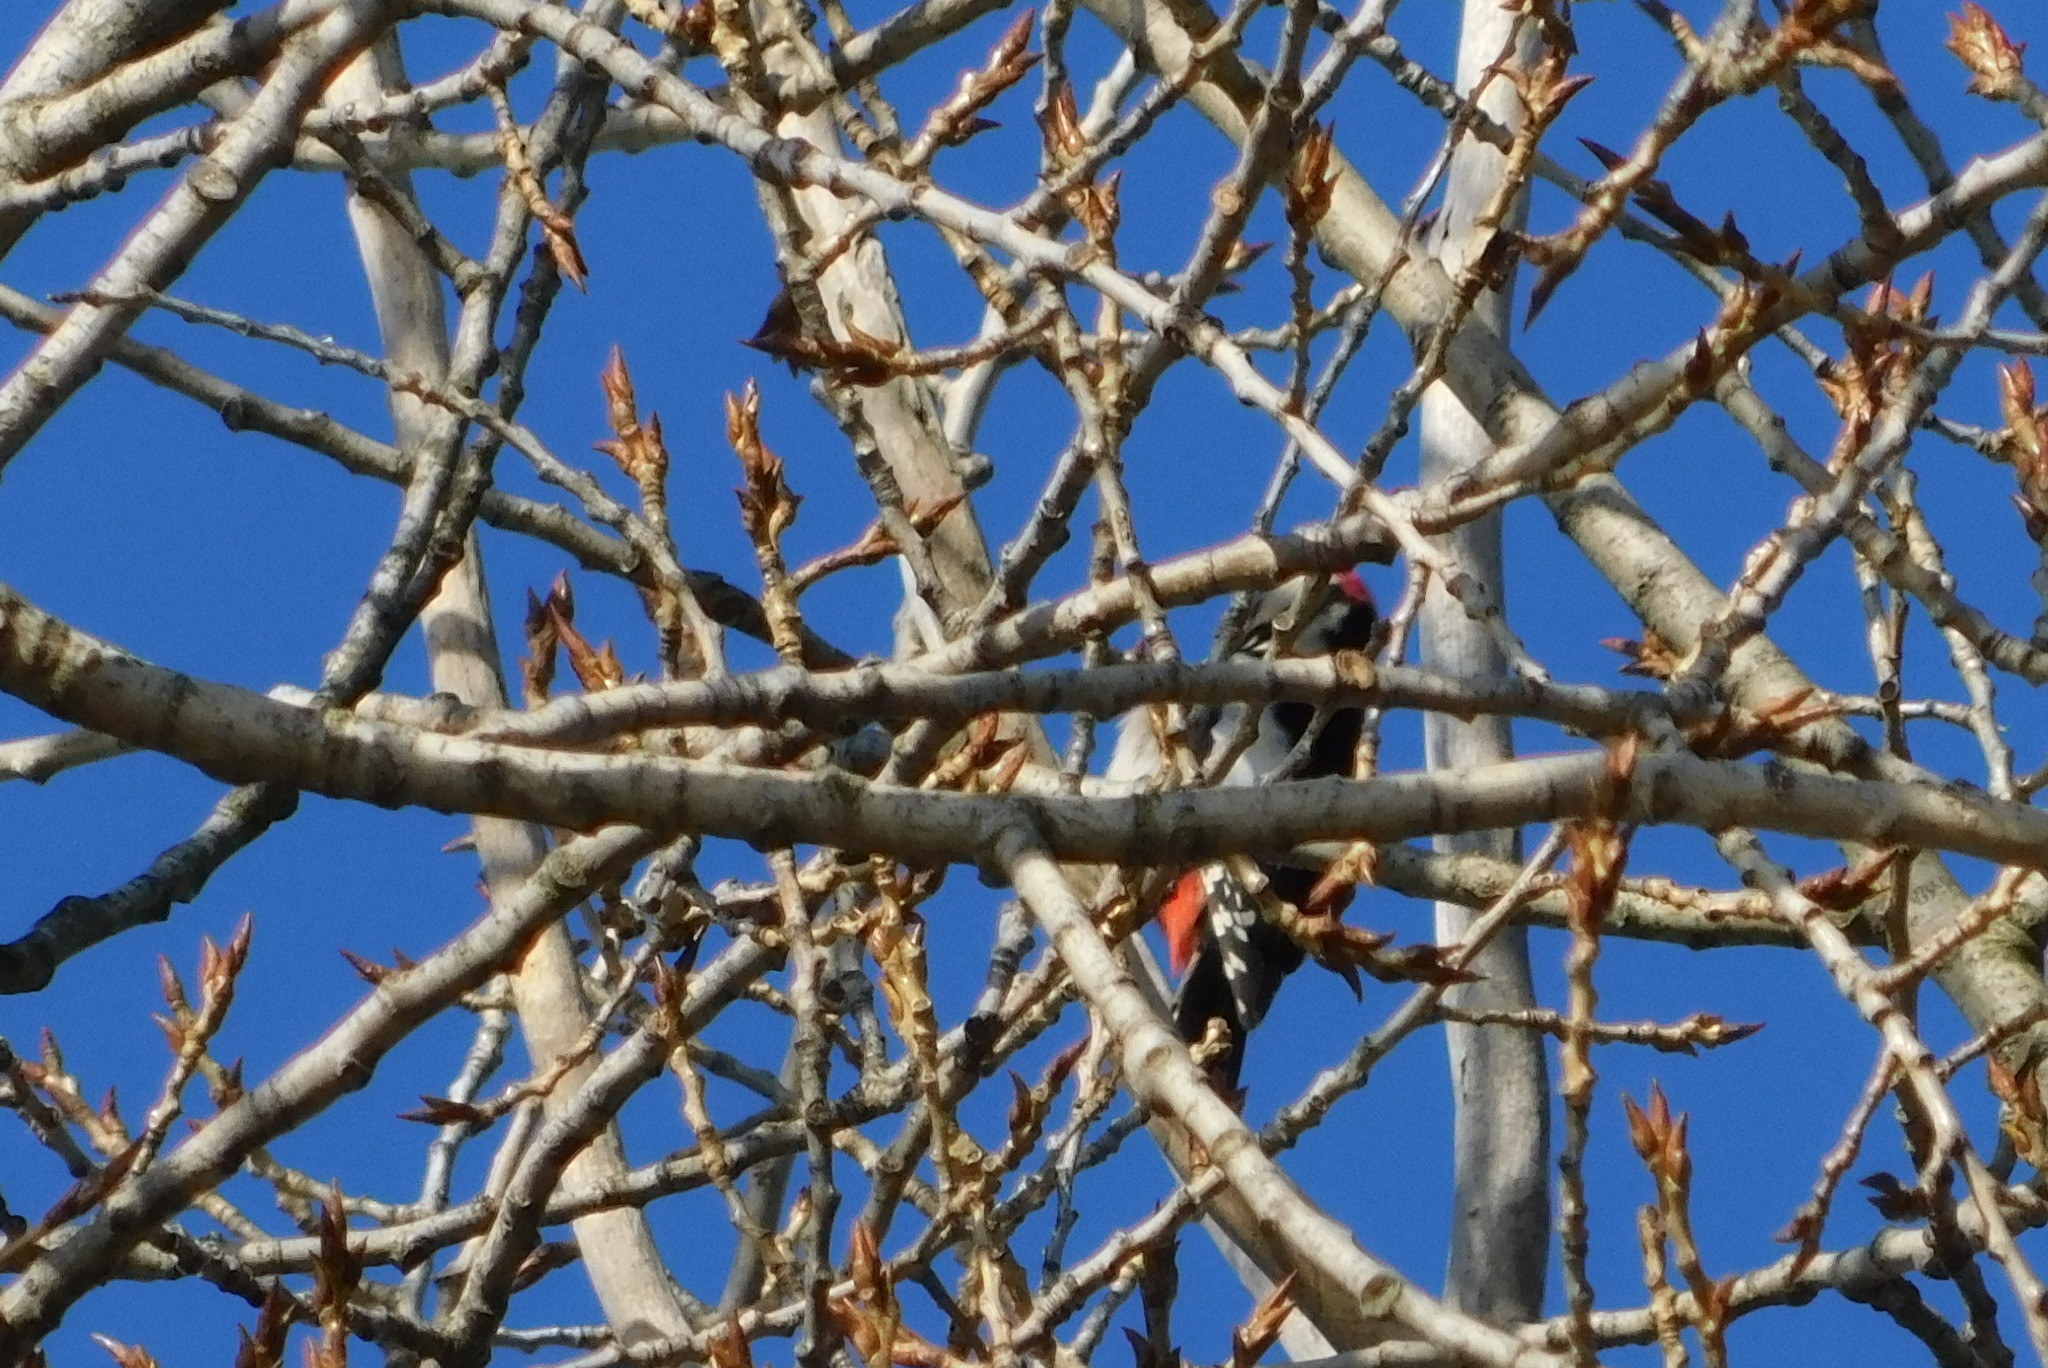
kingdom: Animalia
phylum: Chordata
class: Aves
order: Piciformes
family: Picidae
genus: Dendrocopos
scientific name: Dendrocopos major
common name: Great spotted woodpecker
